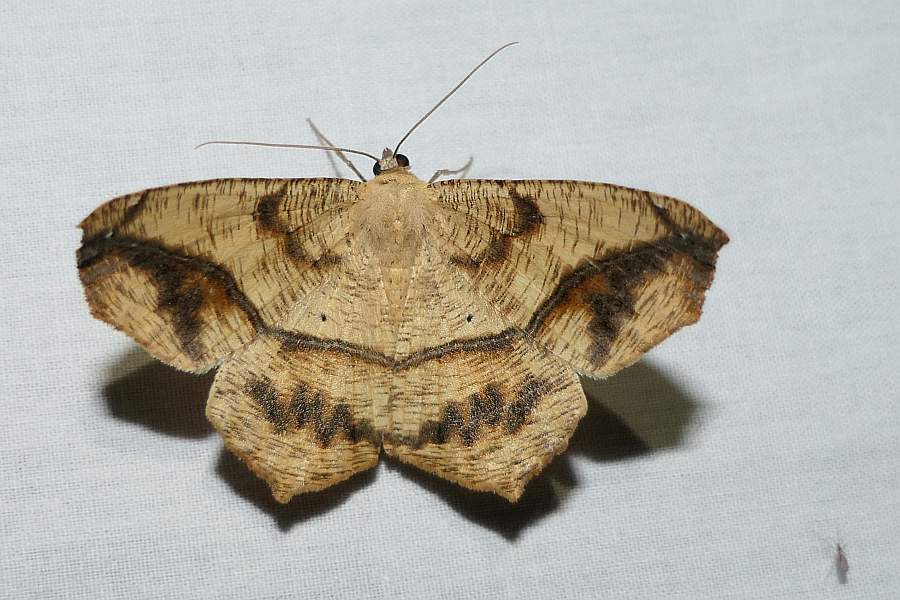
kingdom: Animalia
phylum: Arthropoda
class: Insecta
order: Lepidoptera
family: Geometridae
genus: Prochoerodes
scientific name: Prochoerodes lineola
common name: Large maple spanworm
